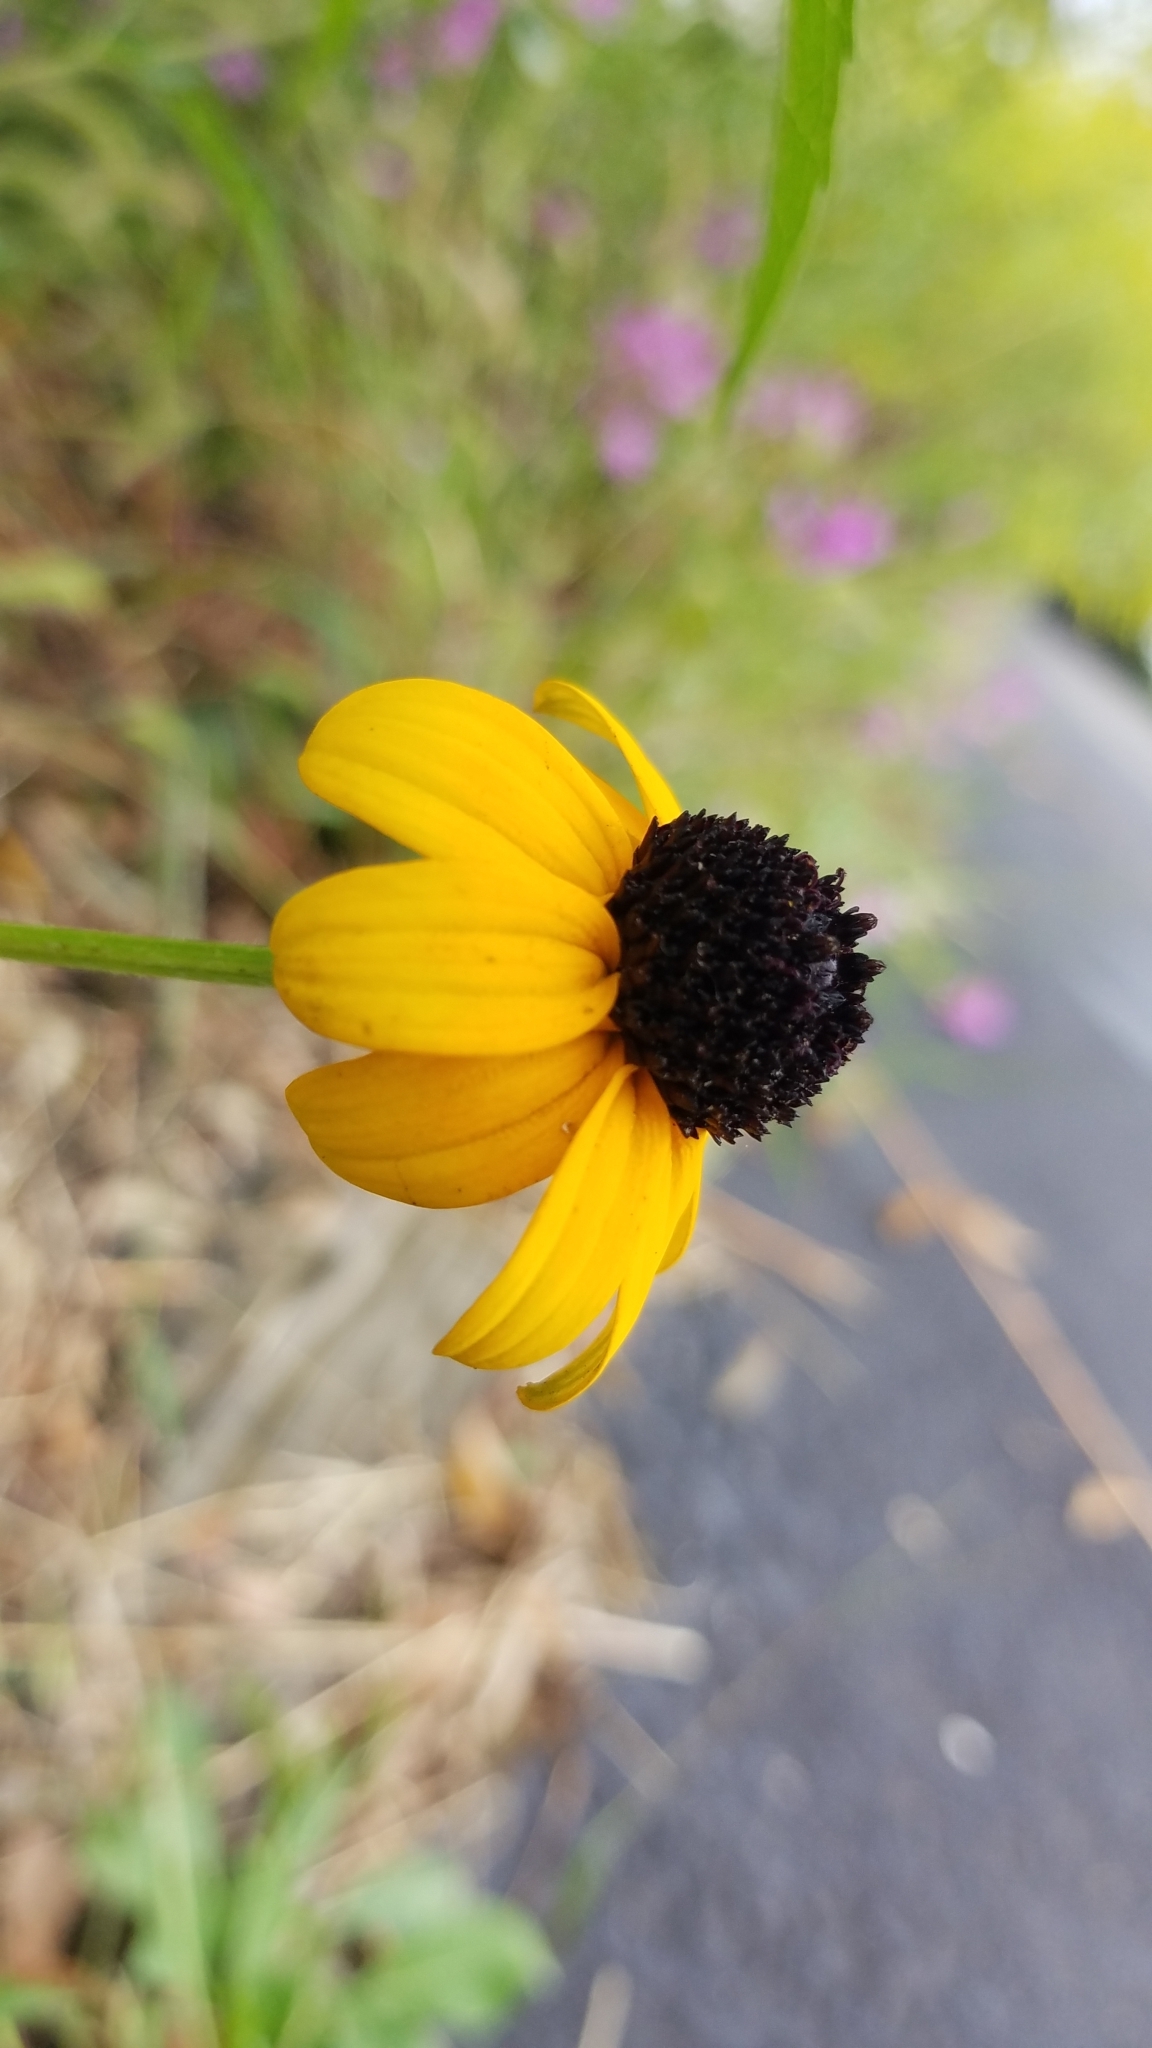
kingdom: Plantae
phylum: Tracheophyta
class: Magnoliopsida
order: Asterales
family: Asteraceae
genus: Rudbeckia
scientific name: Rudbeckia triloba
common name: Thin-leaved coneflower
